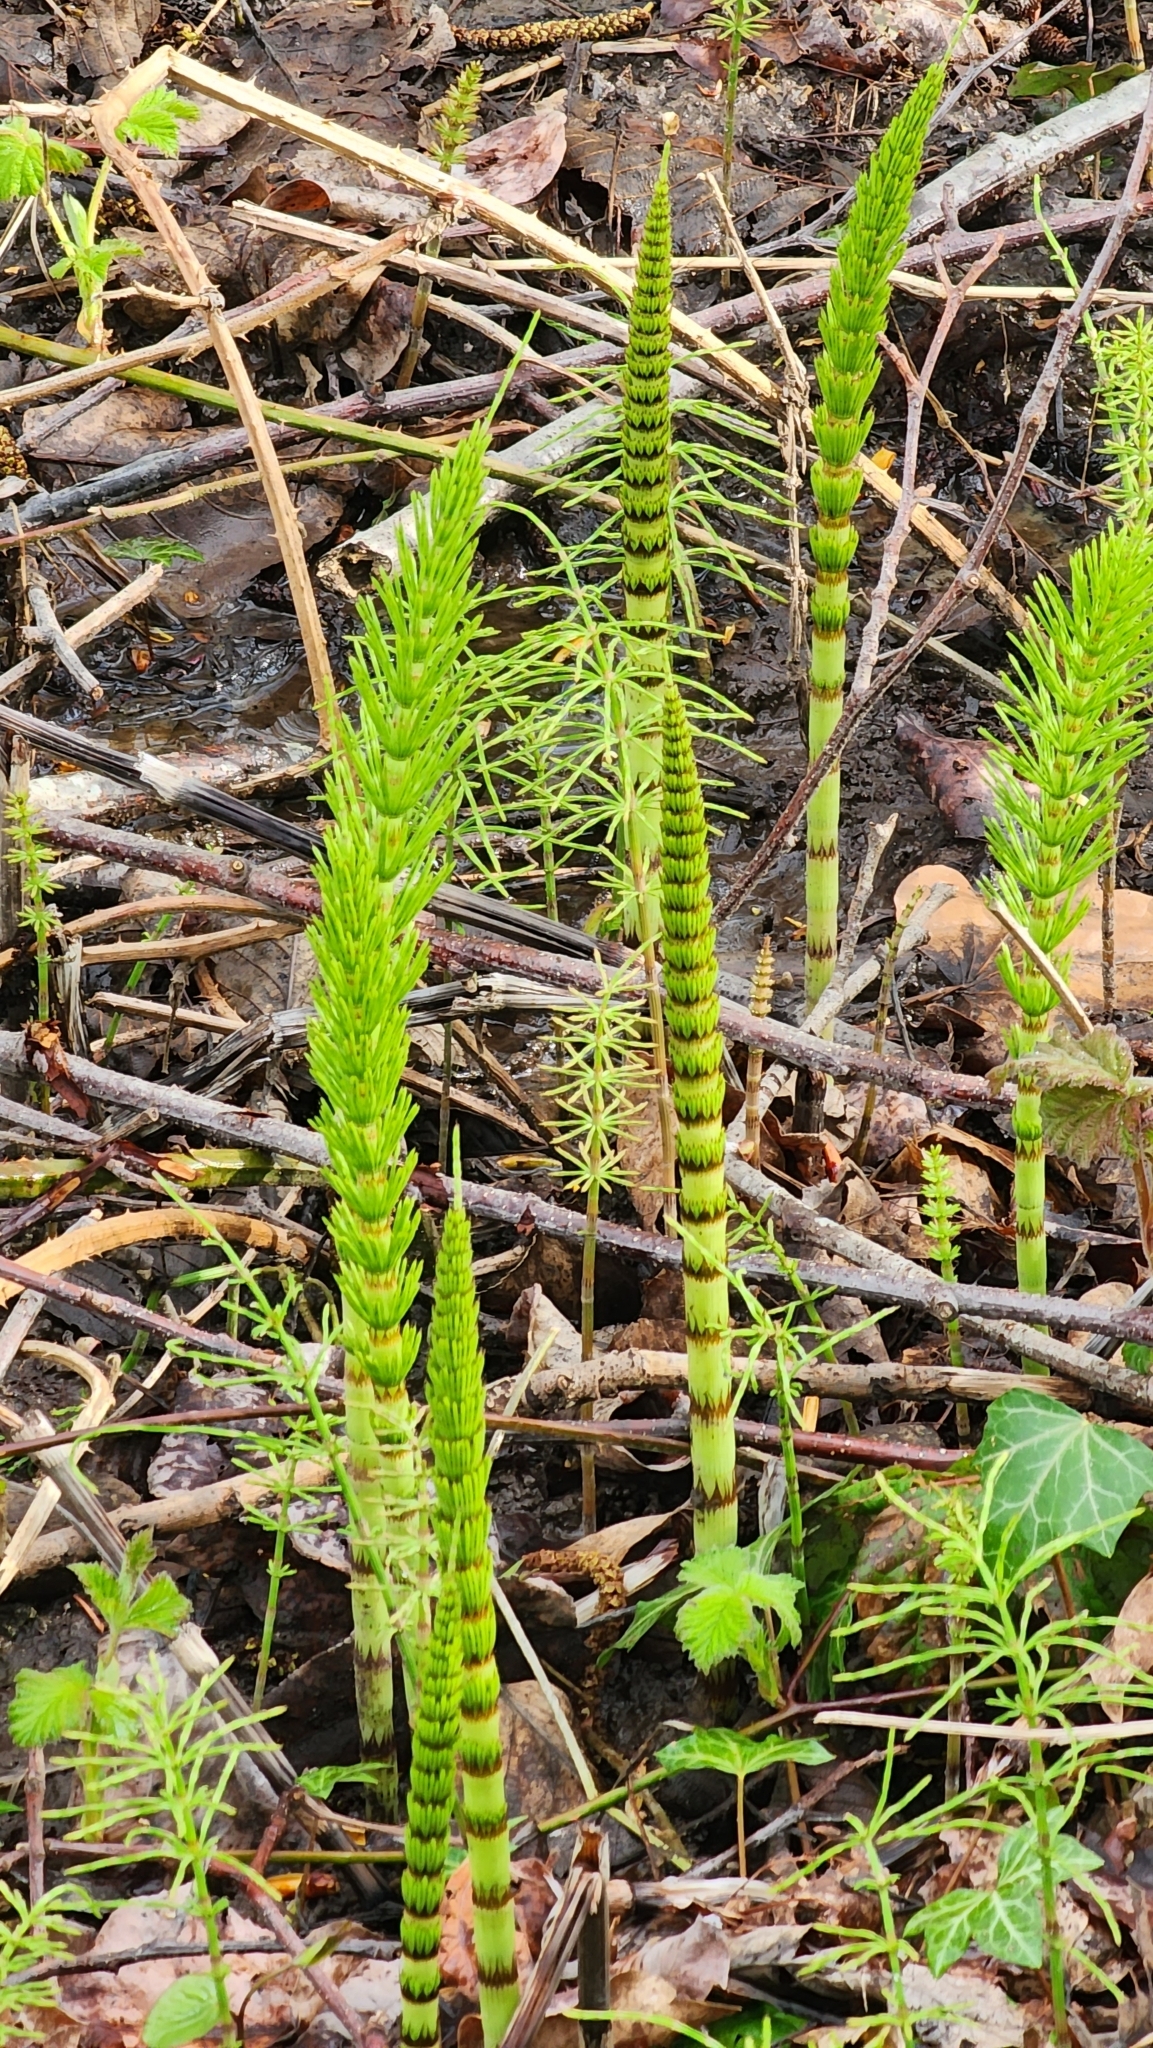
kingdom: Plantae
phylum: Tracheophyta
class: Polypodiopsida
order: Equisetales
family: Equisetaceae
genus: Equisetum
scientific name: Equisetum braunii
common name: Braun's horsetail
